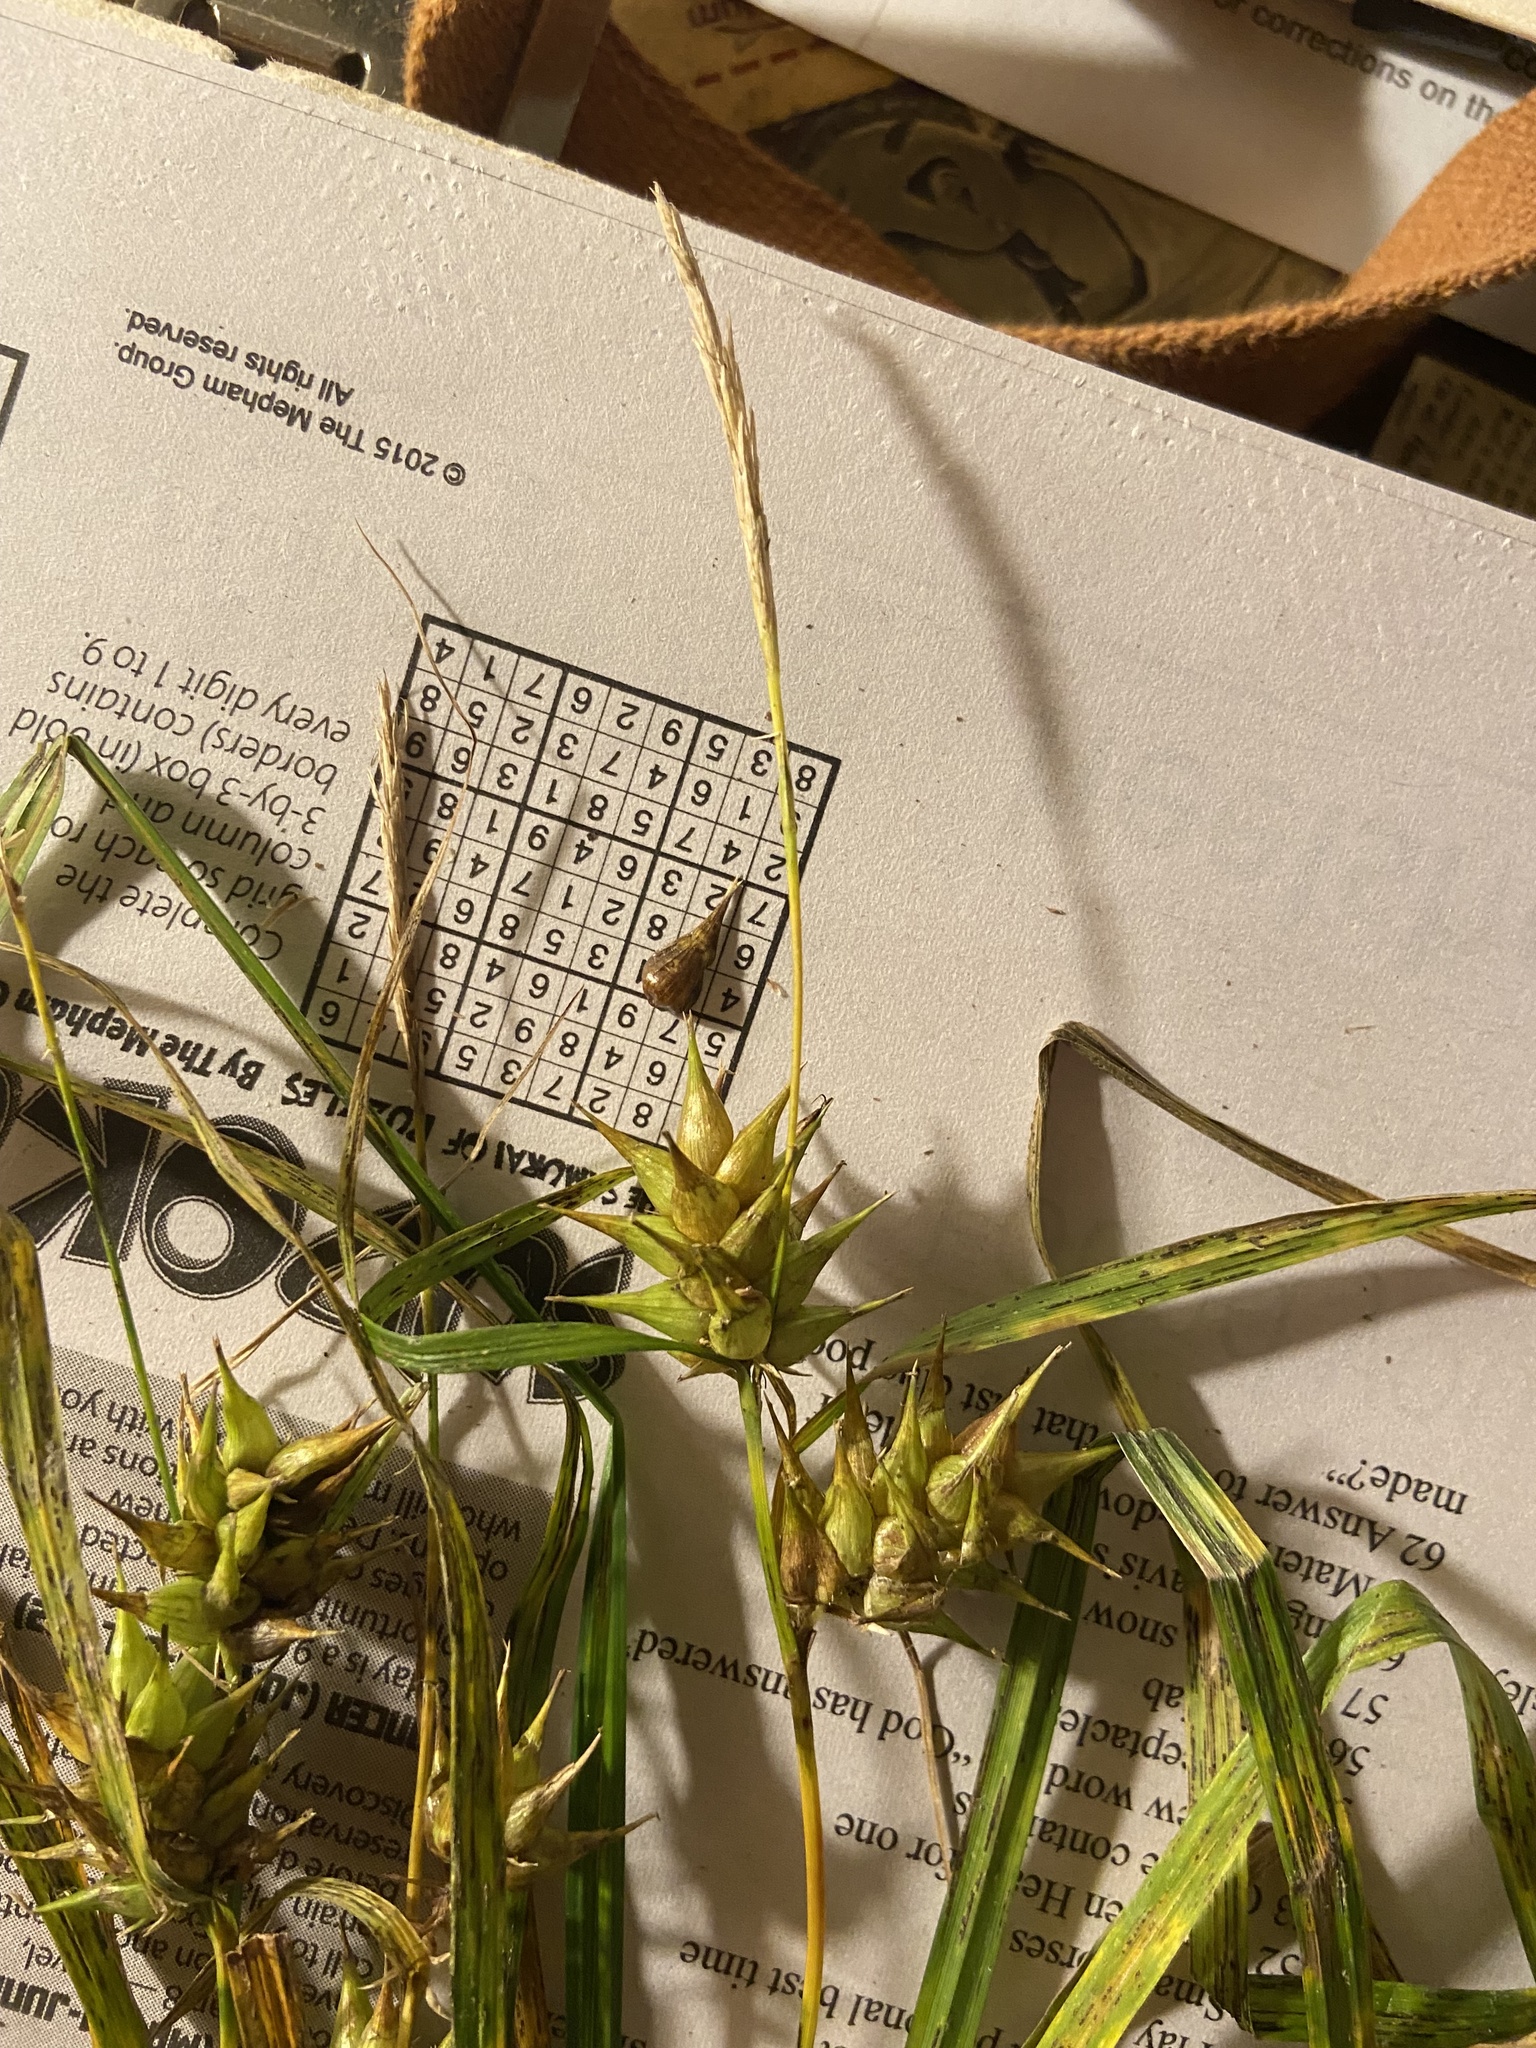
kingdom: Plantae
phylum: Tracheophyta
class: Liliopsida
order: Poales
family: Cyperaceae
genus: Carex
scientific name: Carex louisianica
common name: Louisiana sedge
